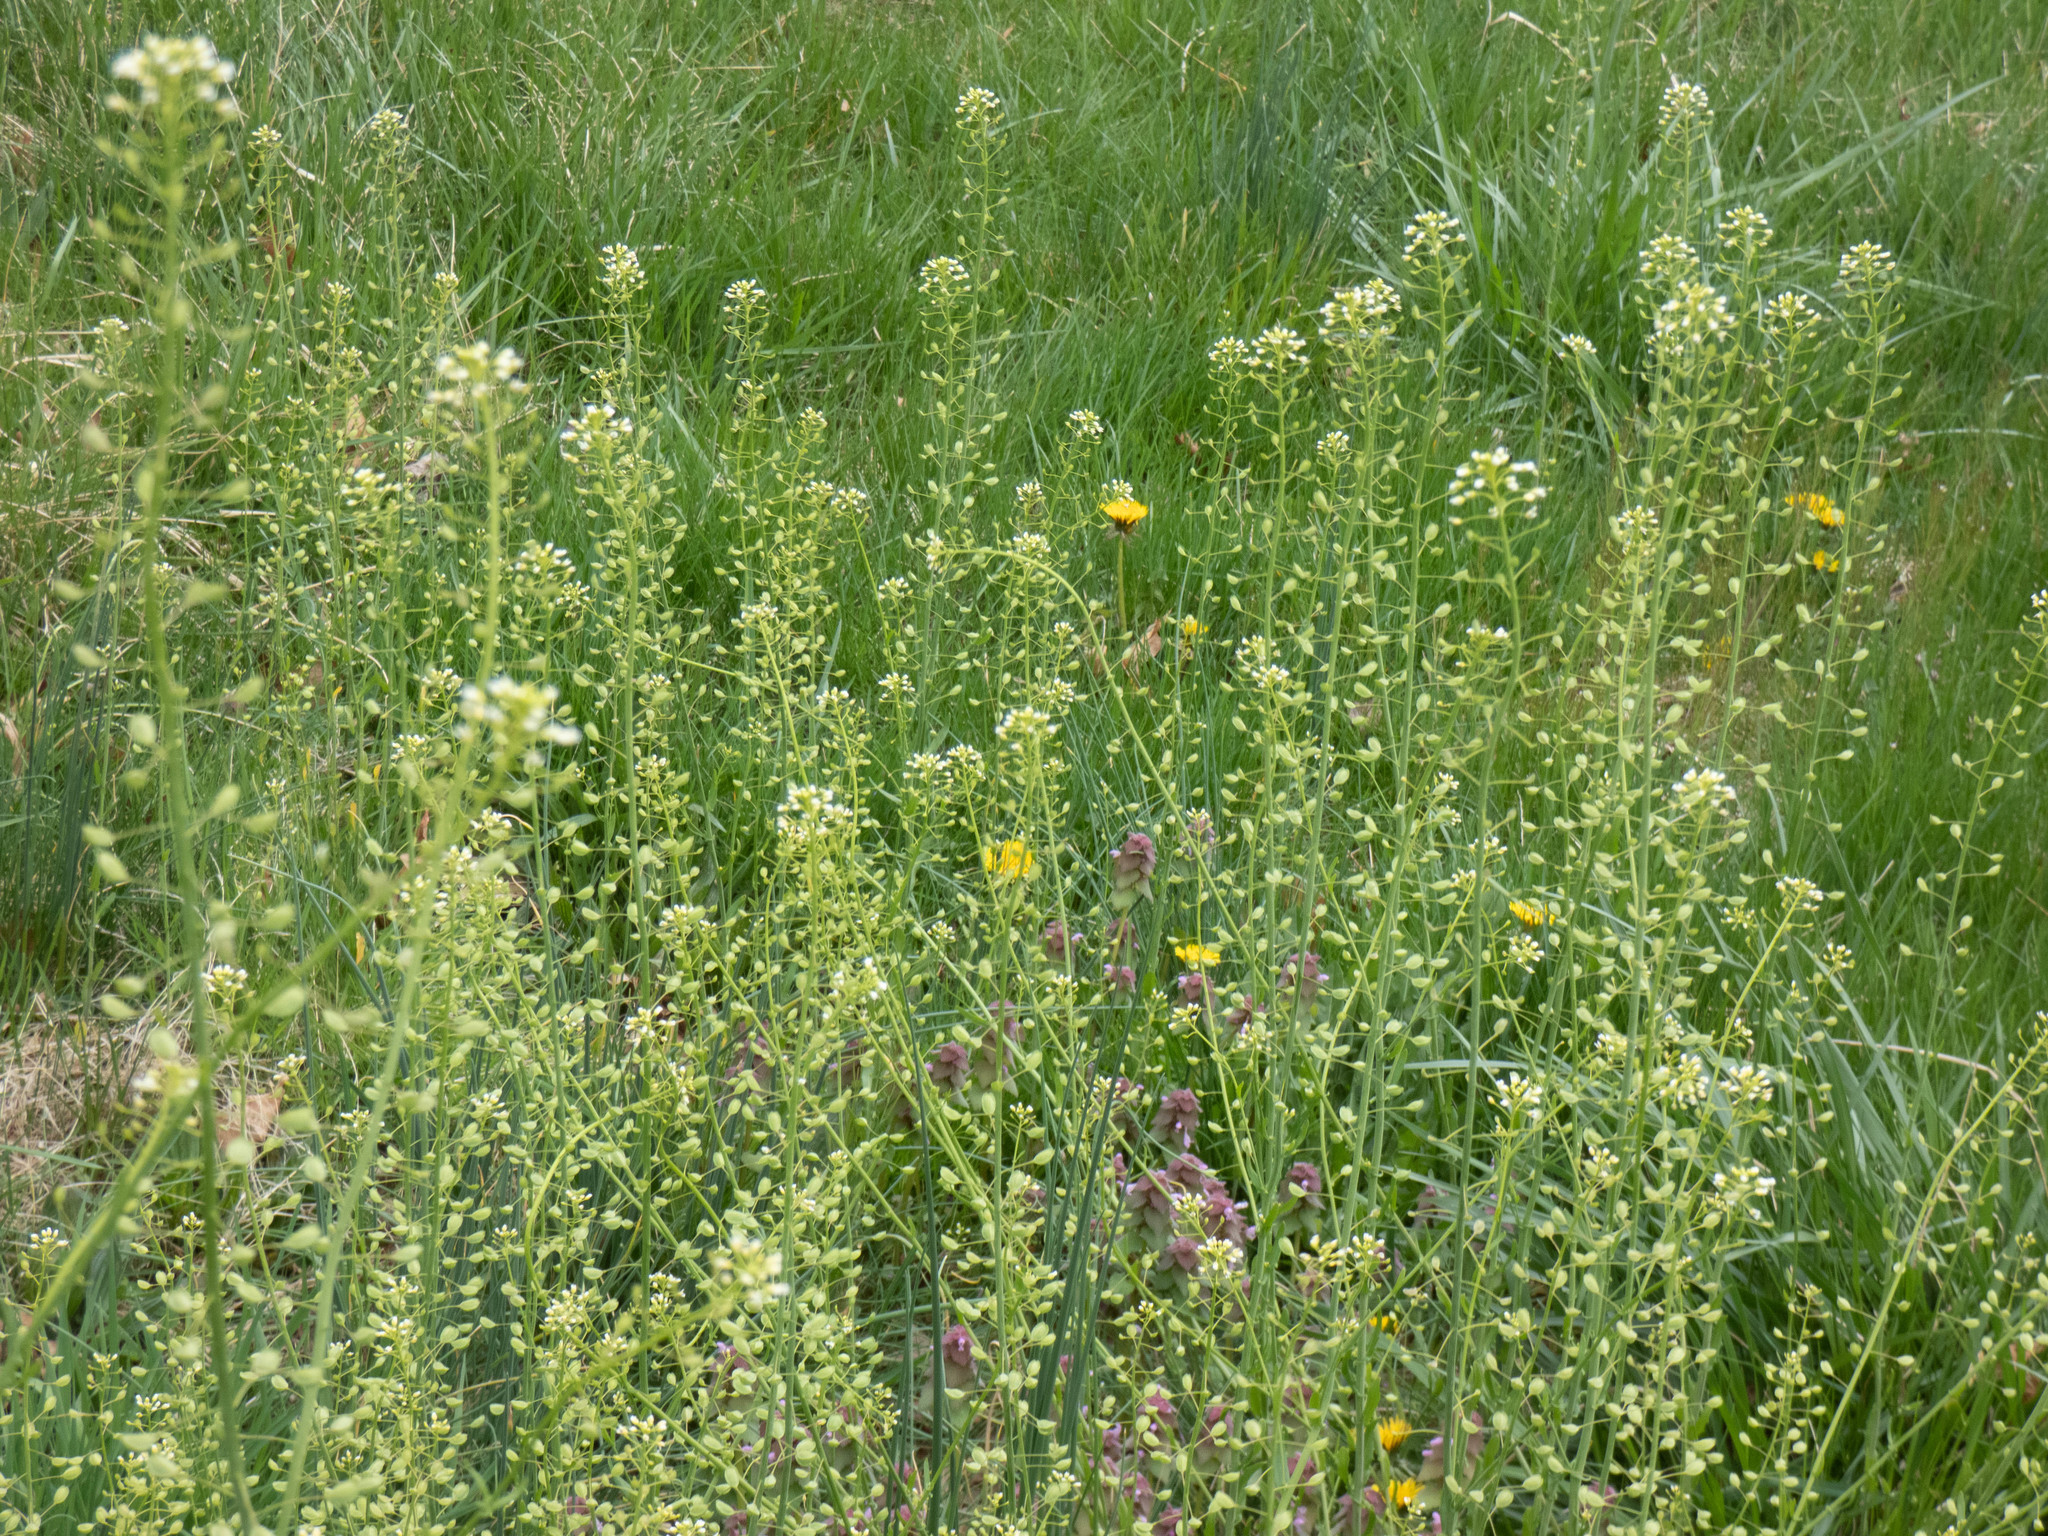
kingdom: Plantae
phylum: Tracheophyta
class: Magnoliopsida
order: Brassicales
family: Brassicaceae
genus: Mummenhoffia
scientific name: Mummenhoffia alliacea
